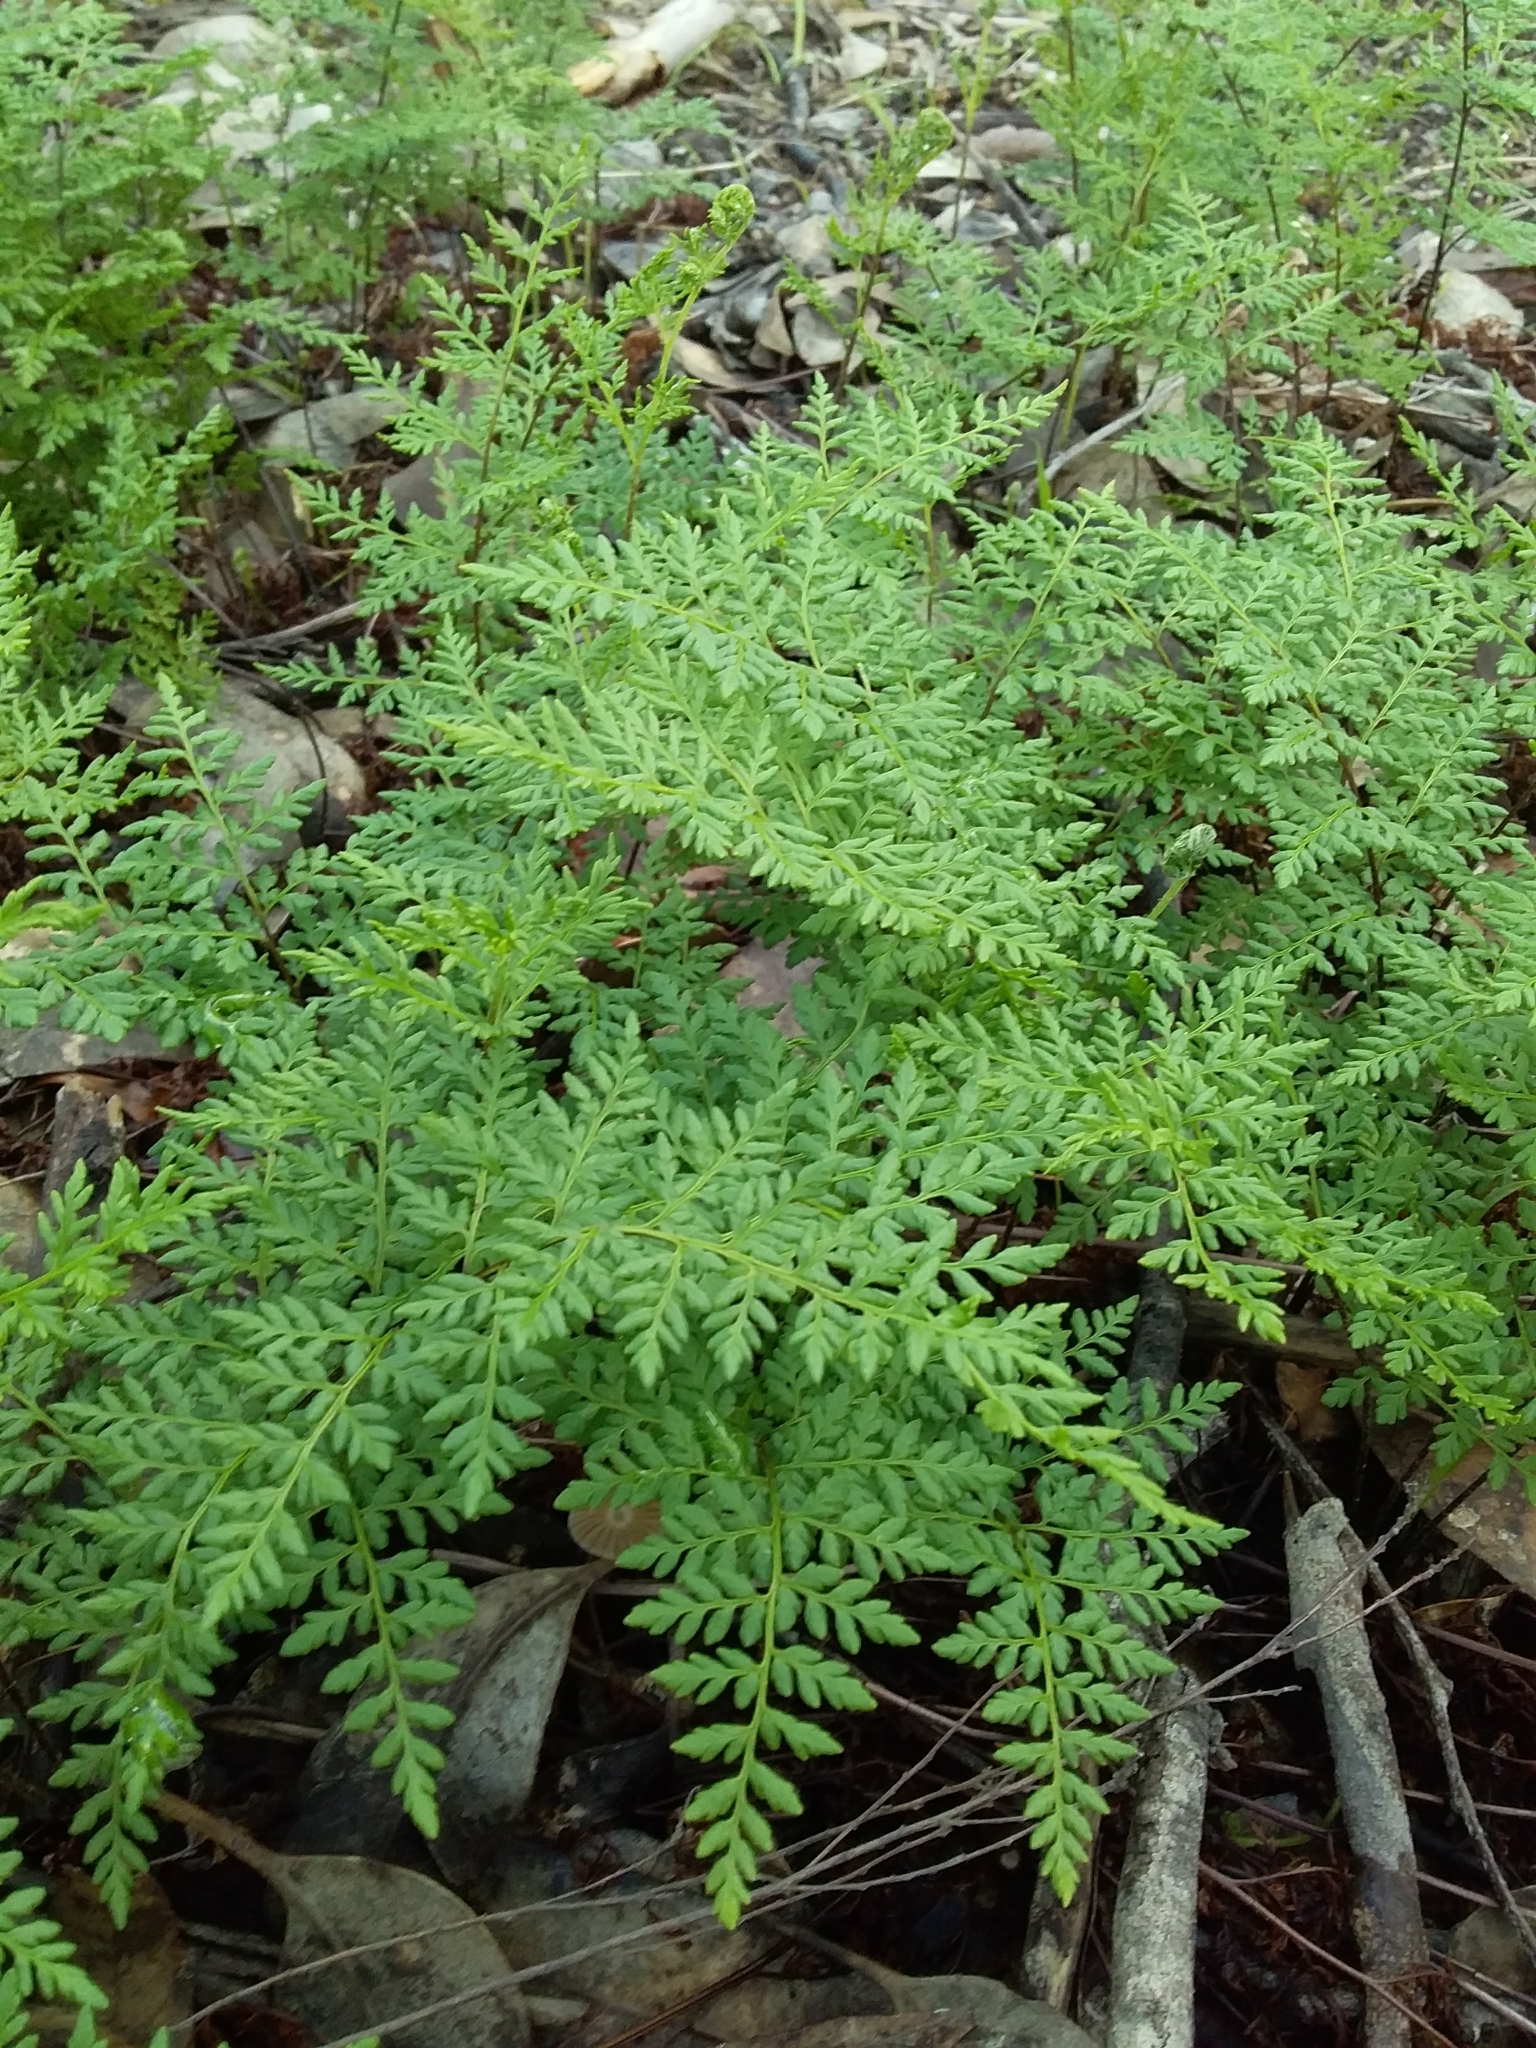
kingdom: Plantae
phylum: Tracheophyta
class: Polypodiopsida
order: Polypodiales
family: Pteridaceae
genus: Cheilanthes
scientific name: Cheilanthes austrotenuifolia
